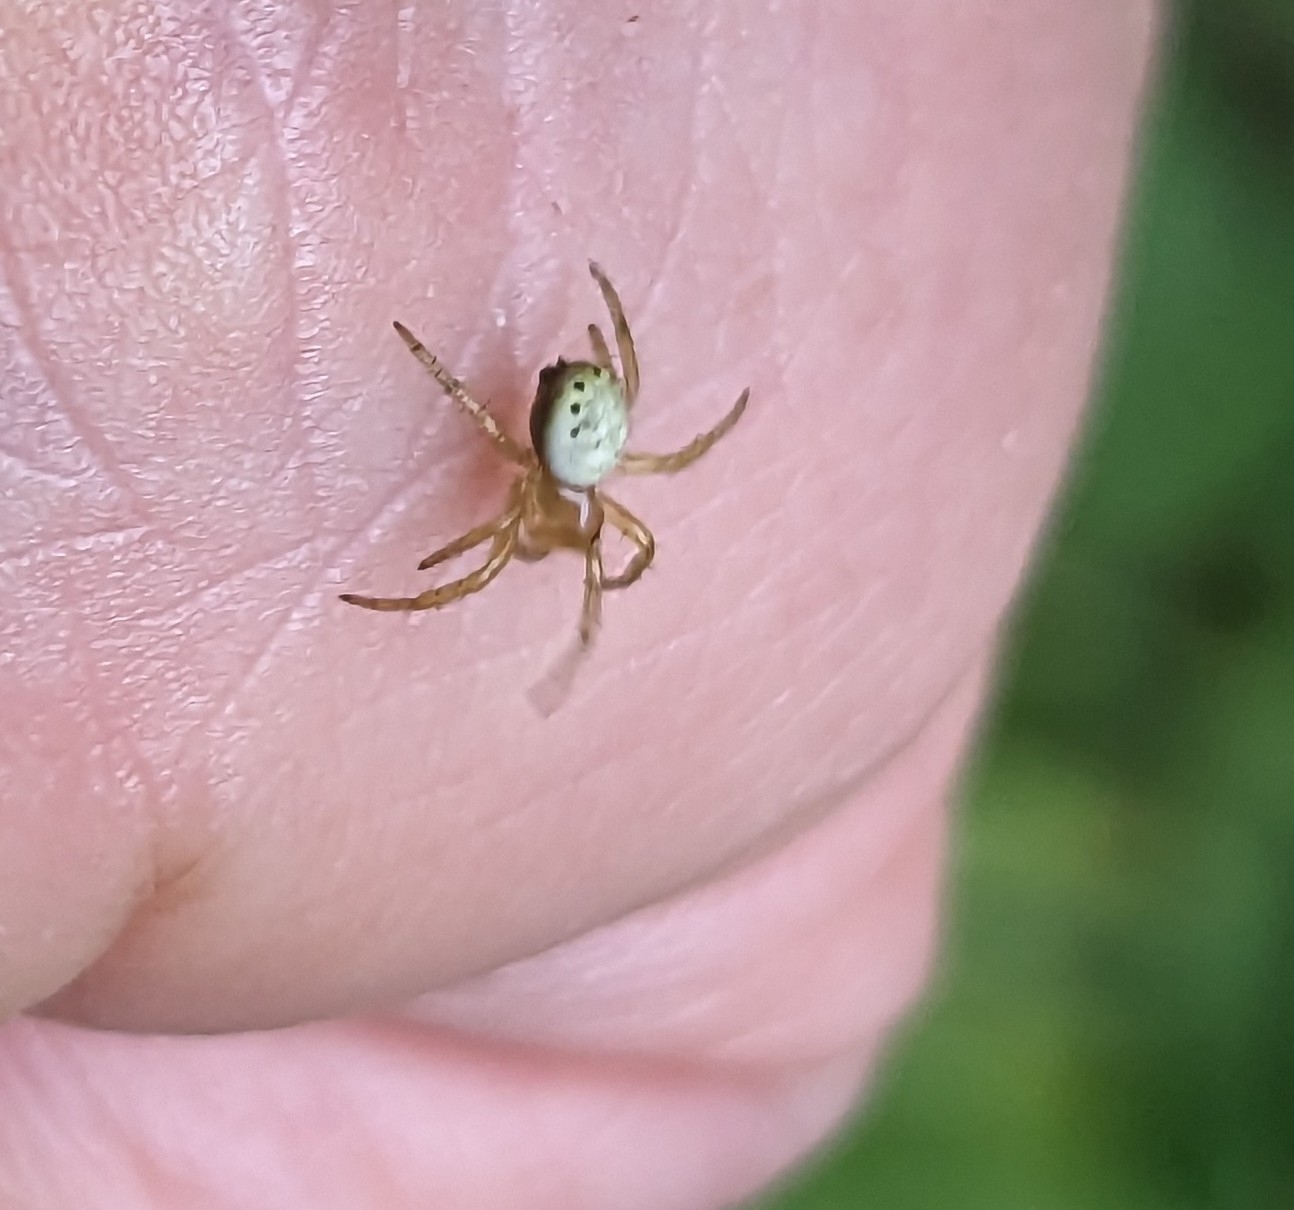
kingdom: Animalia
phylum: Arthropoda
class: Arachnida
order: Araneae
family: Araneidae
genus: Araniella
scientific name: Araniella displicata
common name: Sixspotted orb weaver
